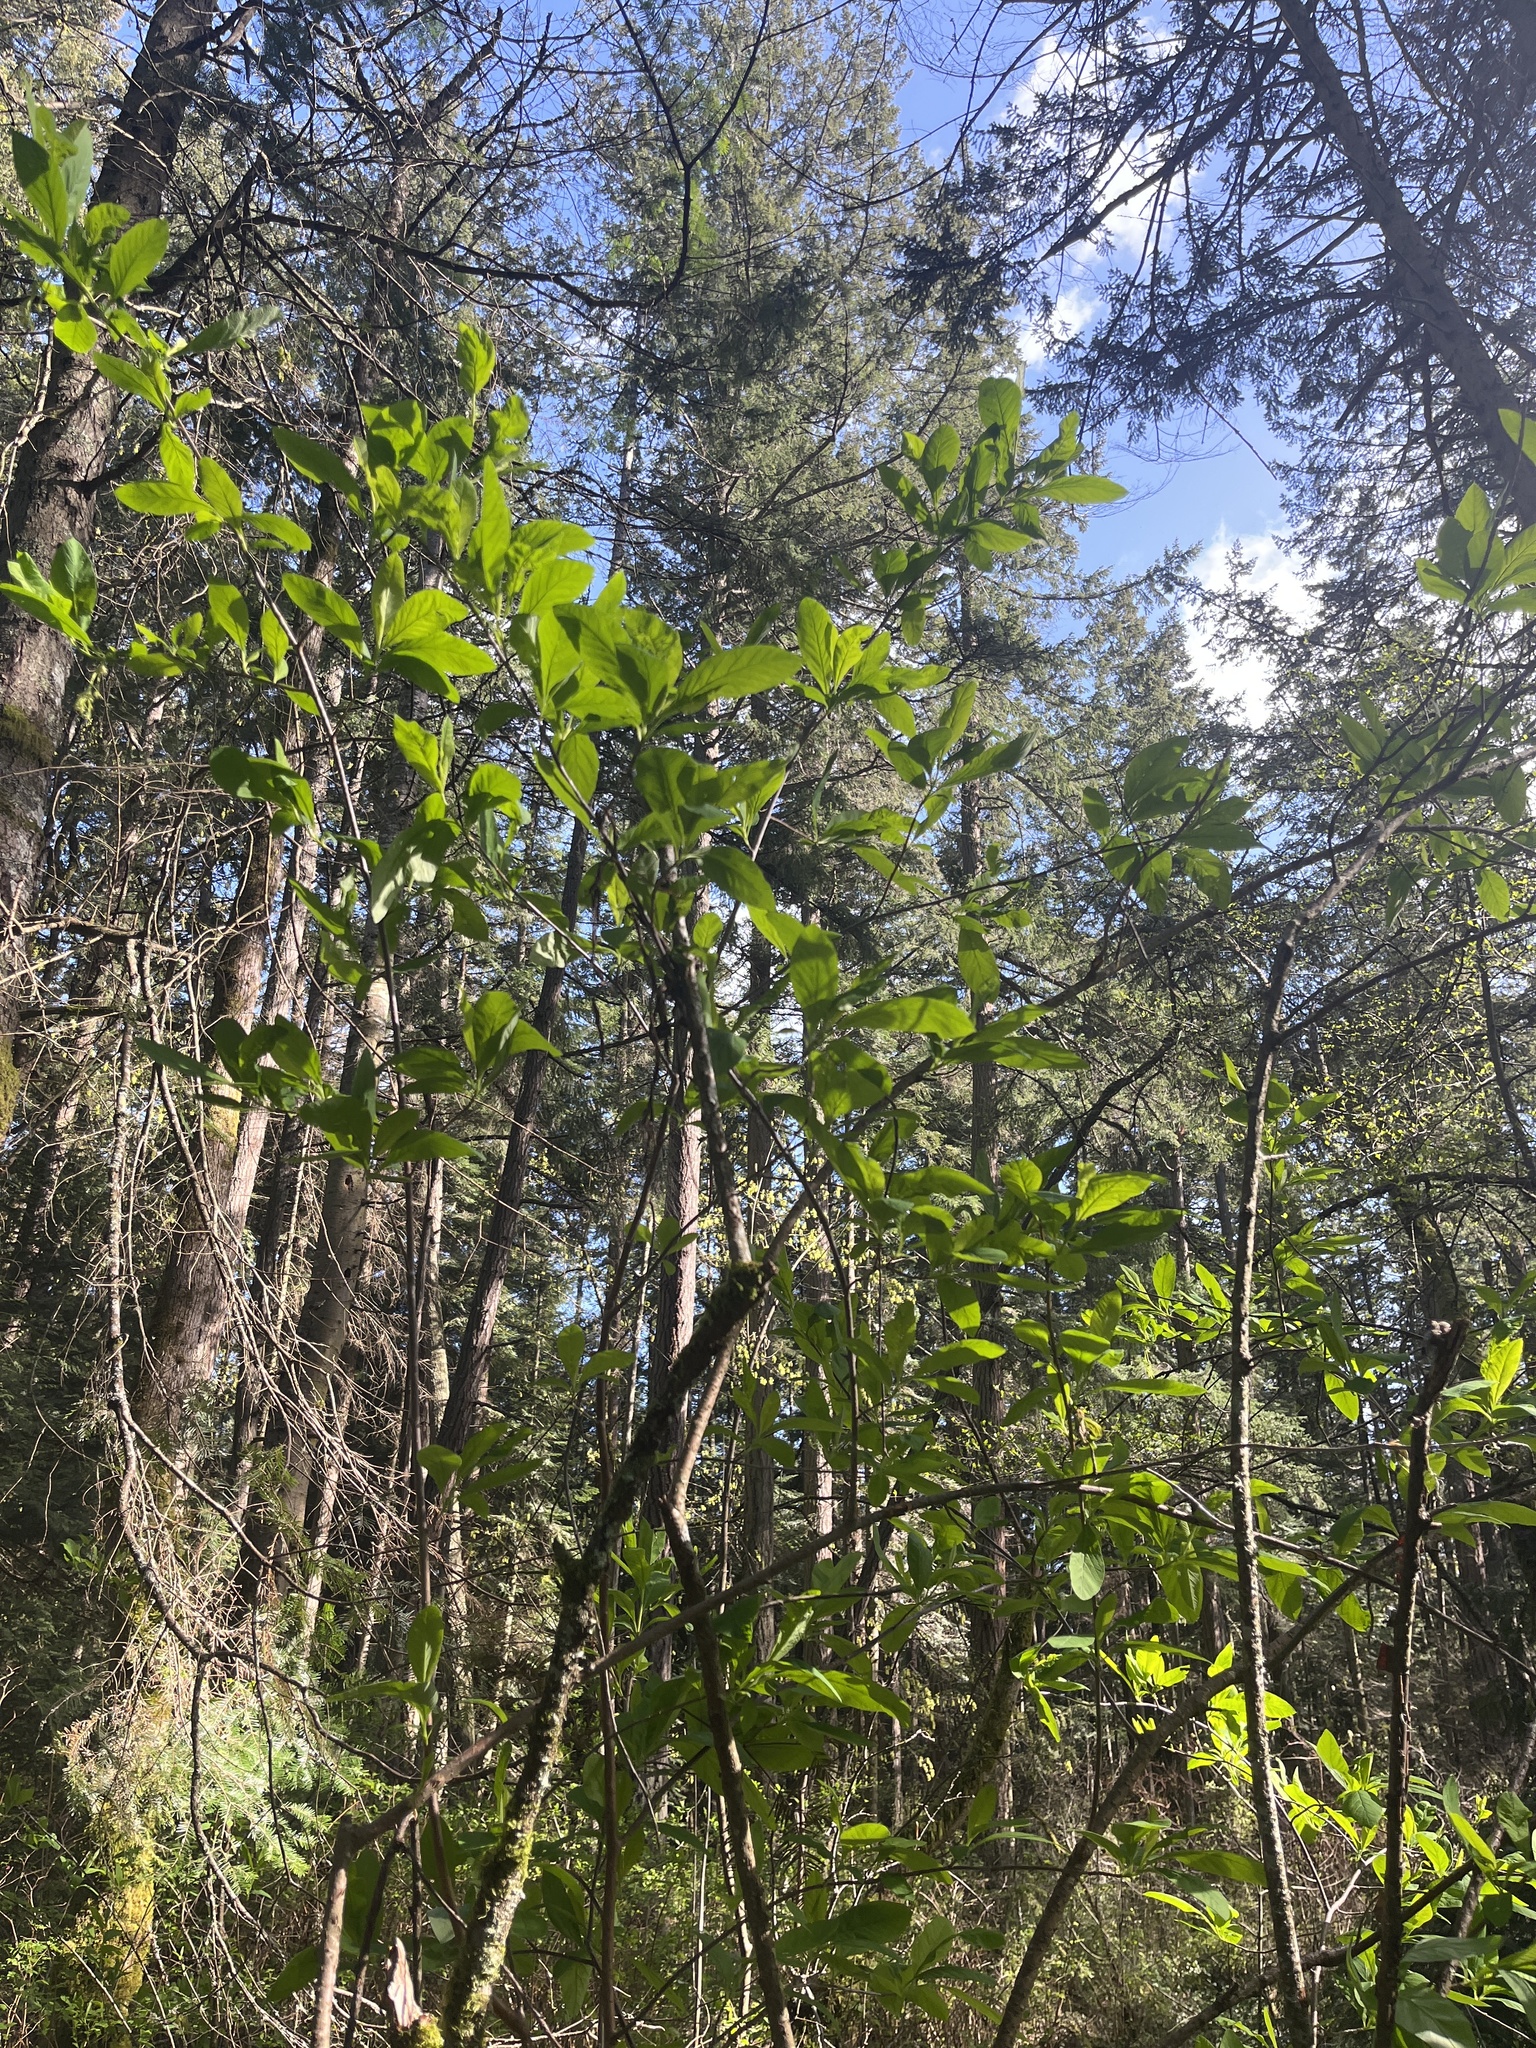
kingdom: Plantae
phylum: Tracheophyta
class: Magnoliopsida
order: Rosales
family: Rosaceae
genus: Oemleria
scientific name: Oemleria cerasiformis
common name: Osoberry
